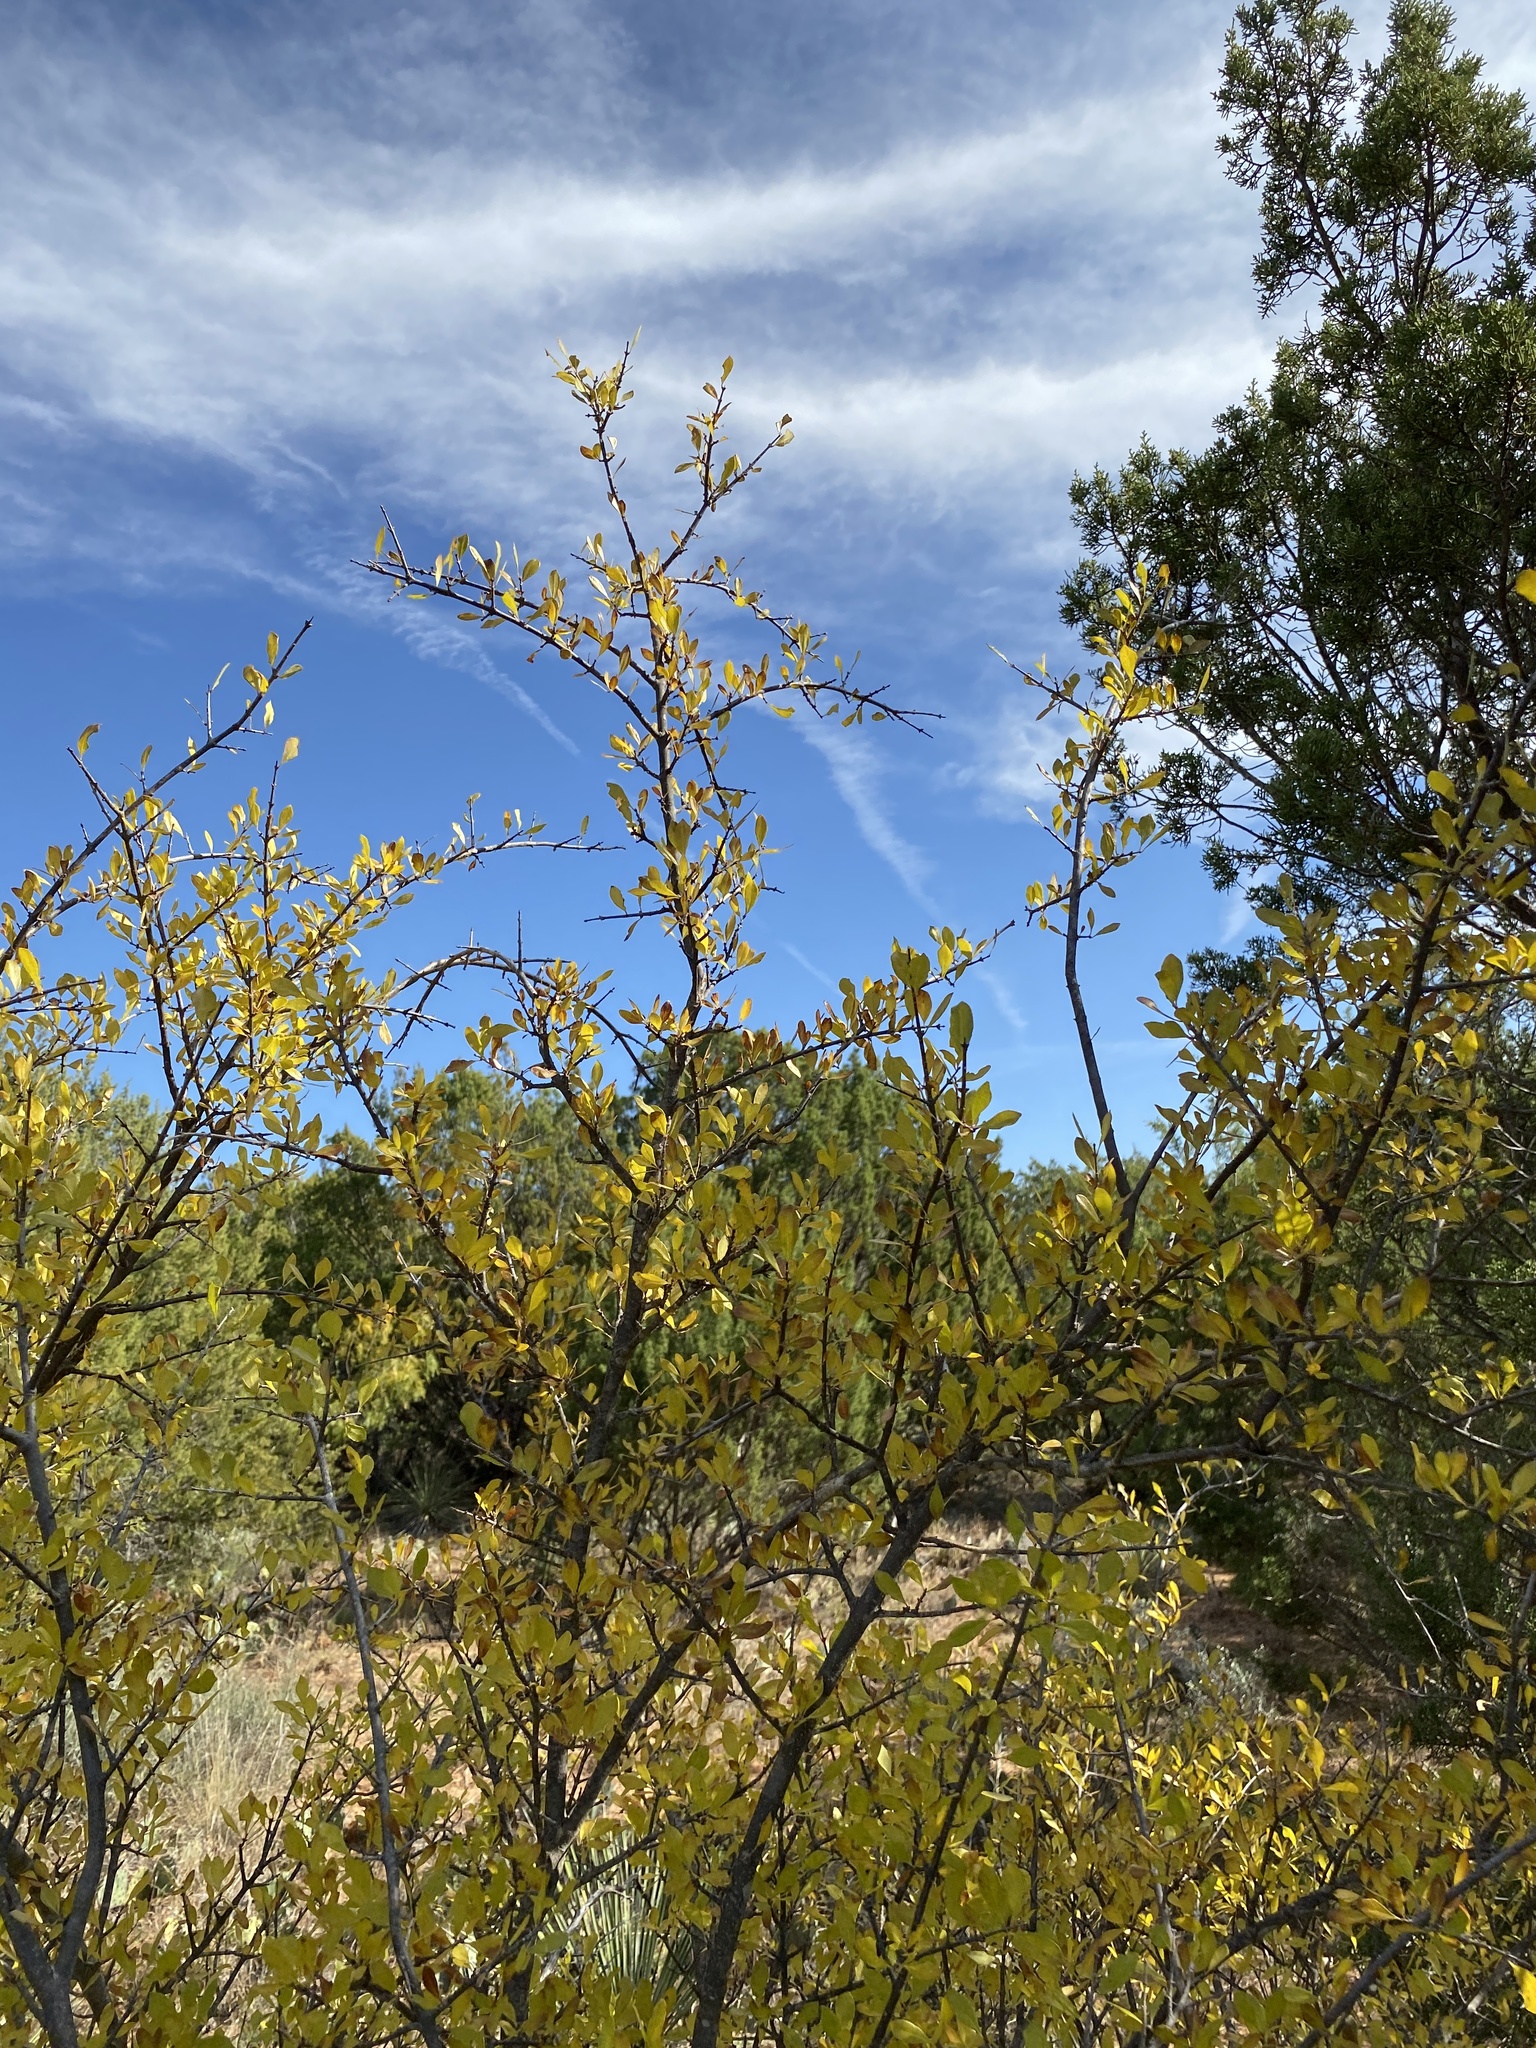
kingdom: Plantae
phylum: Tracheophyta
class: Magnoliopsida
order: Ericales
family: Sapotaceae
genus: Sideroxylon
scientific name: Sideroxylon lanuginosum
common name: Chittamwood
